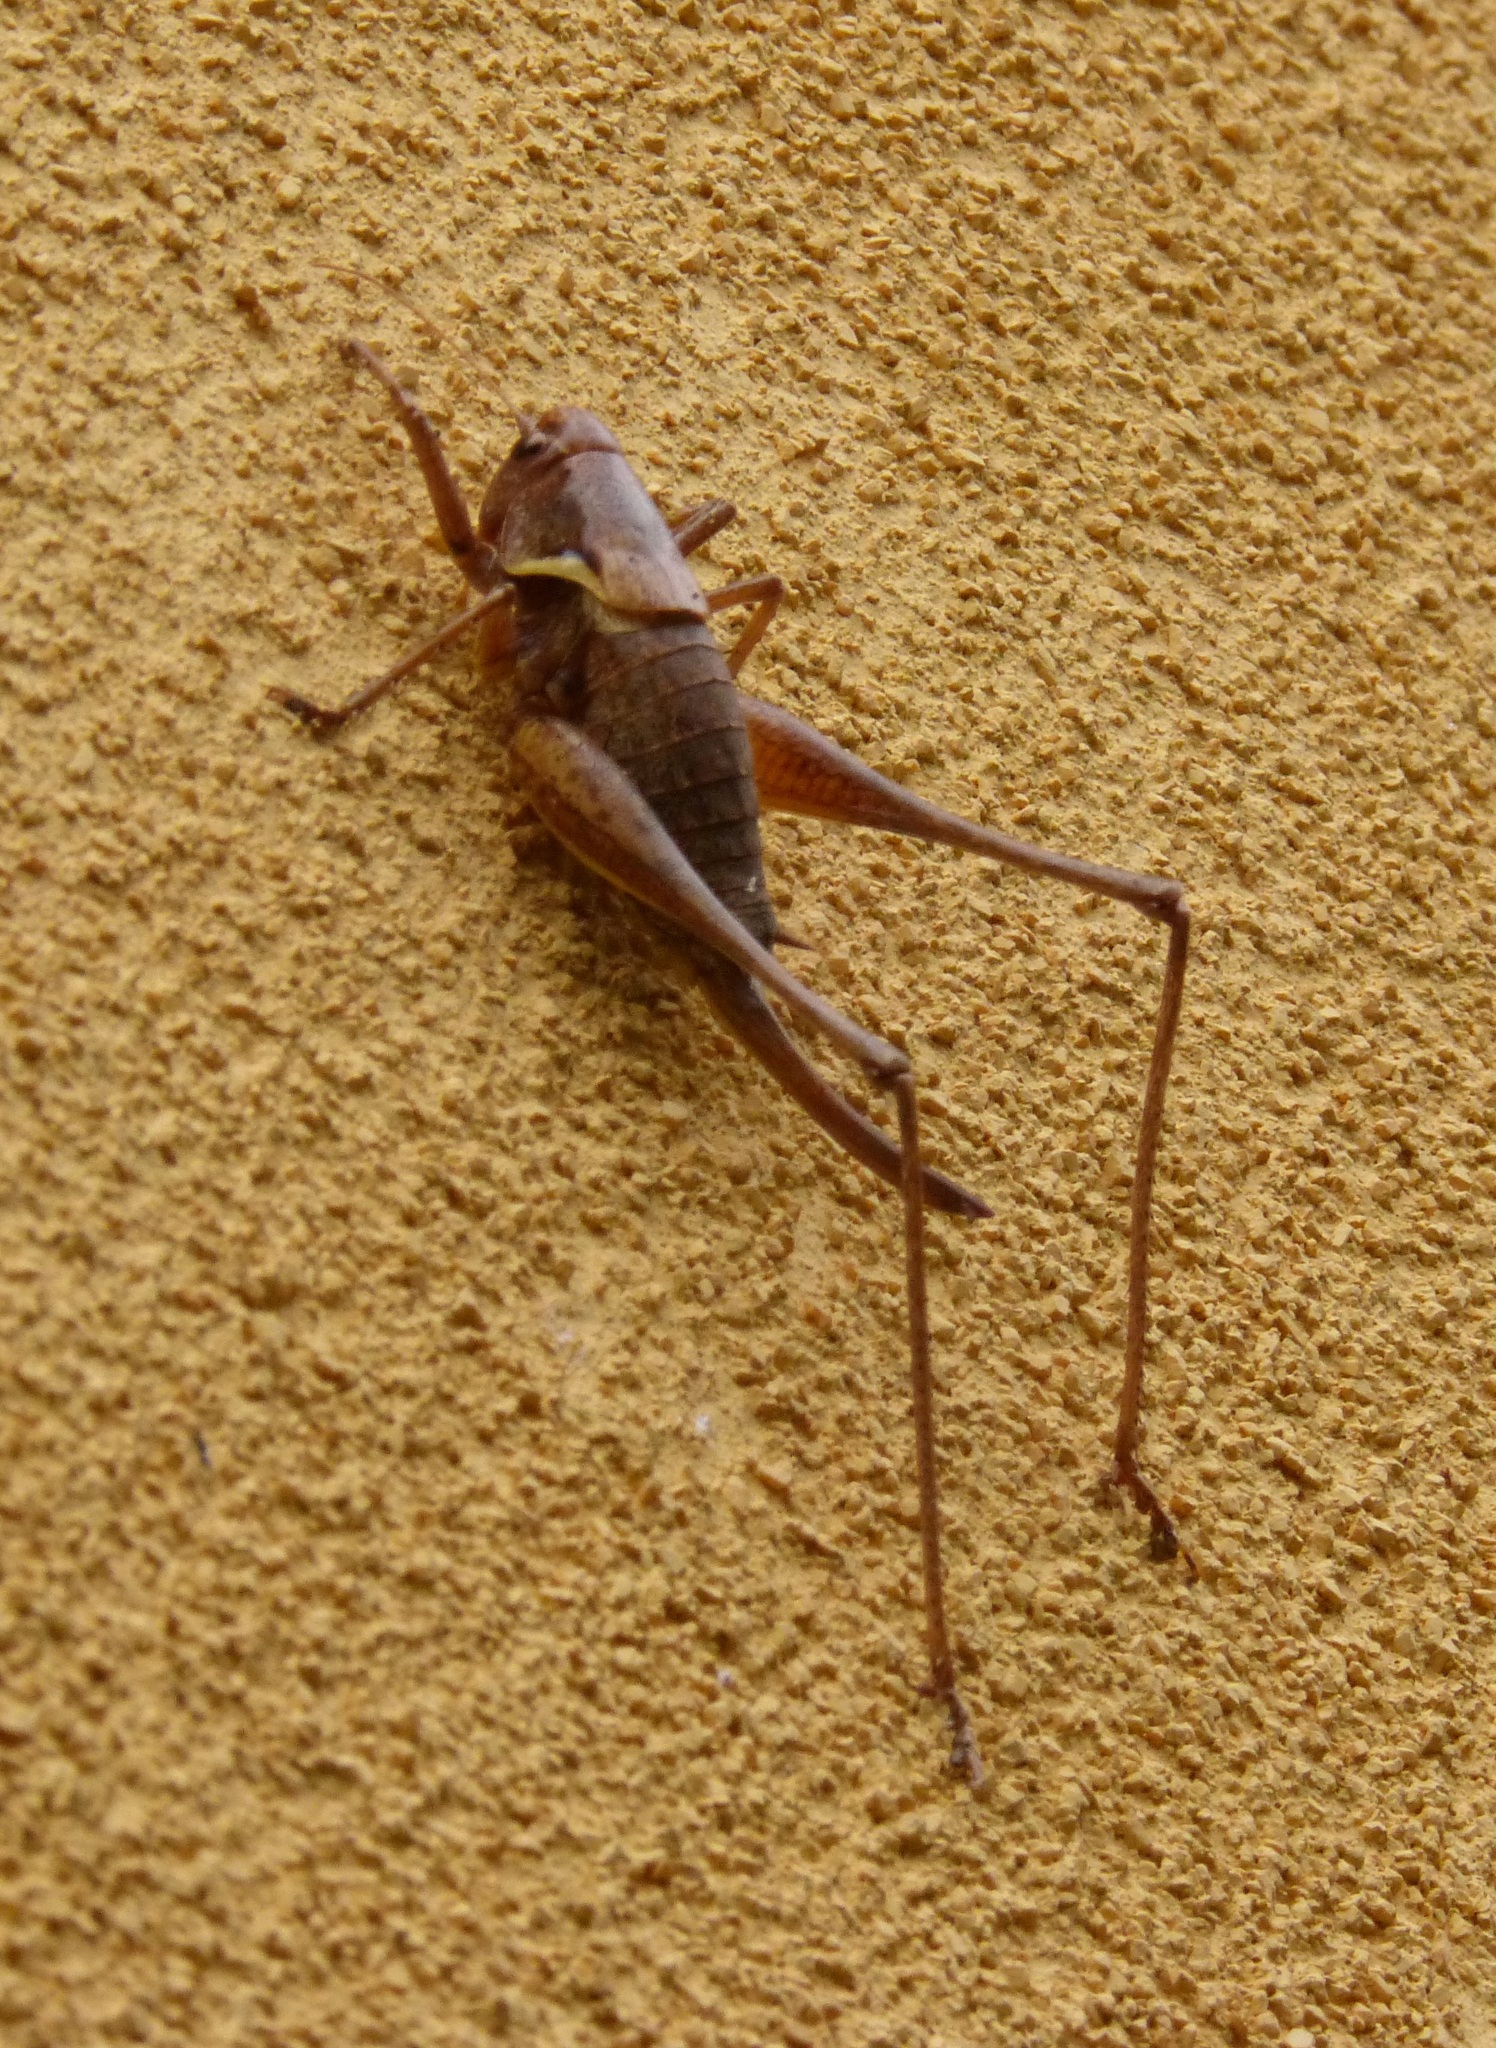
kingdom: Animalia
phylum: Arthropoda
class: Insecta
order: Orthoptera
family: Tettigoniidae
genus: Pholidoptera
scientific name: Pholidoptera aptera
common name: Alpine dark bush-cricket
